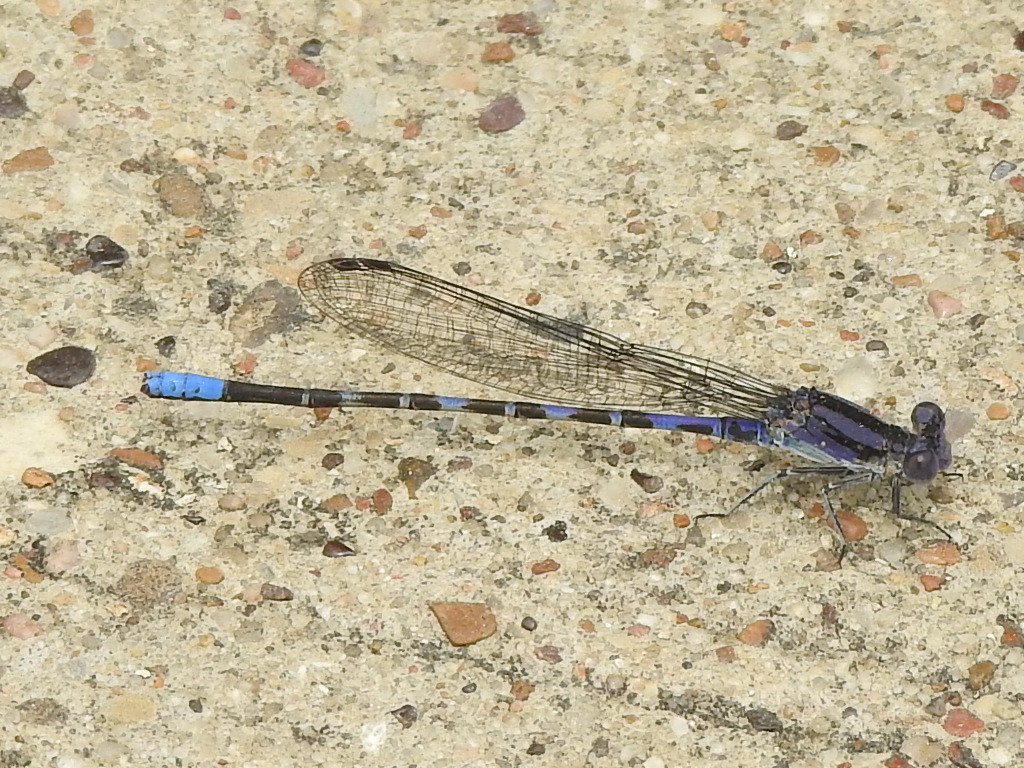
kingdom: Animalia
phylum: Arthropoda
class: Insecta
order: Odonata
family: Coenagrionidae
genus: Argia
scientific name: Argia immunda
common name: Kiowa dancer
